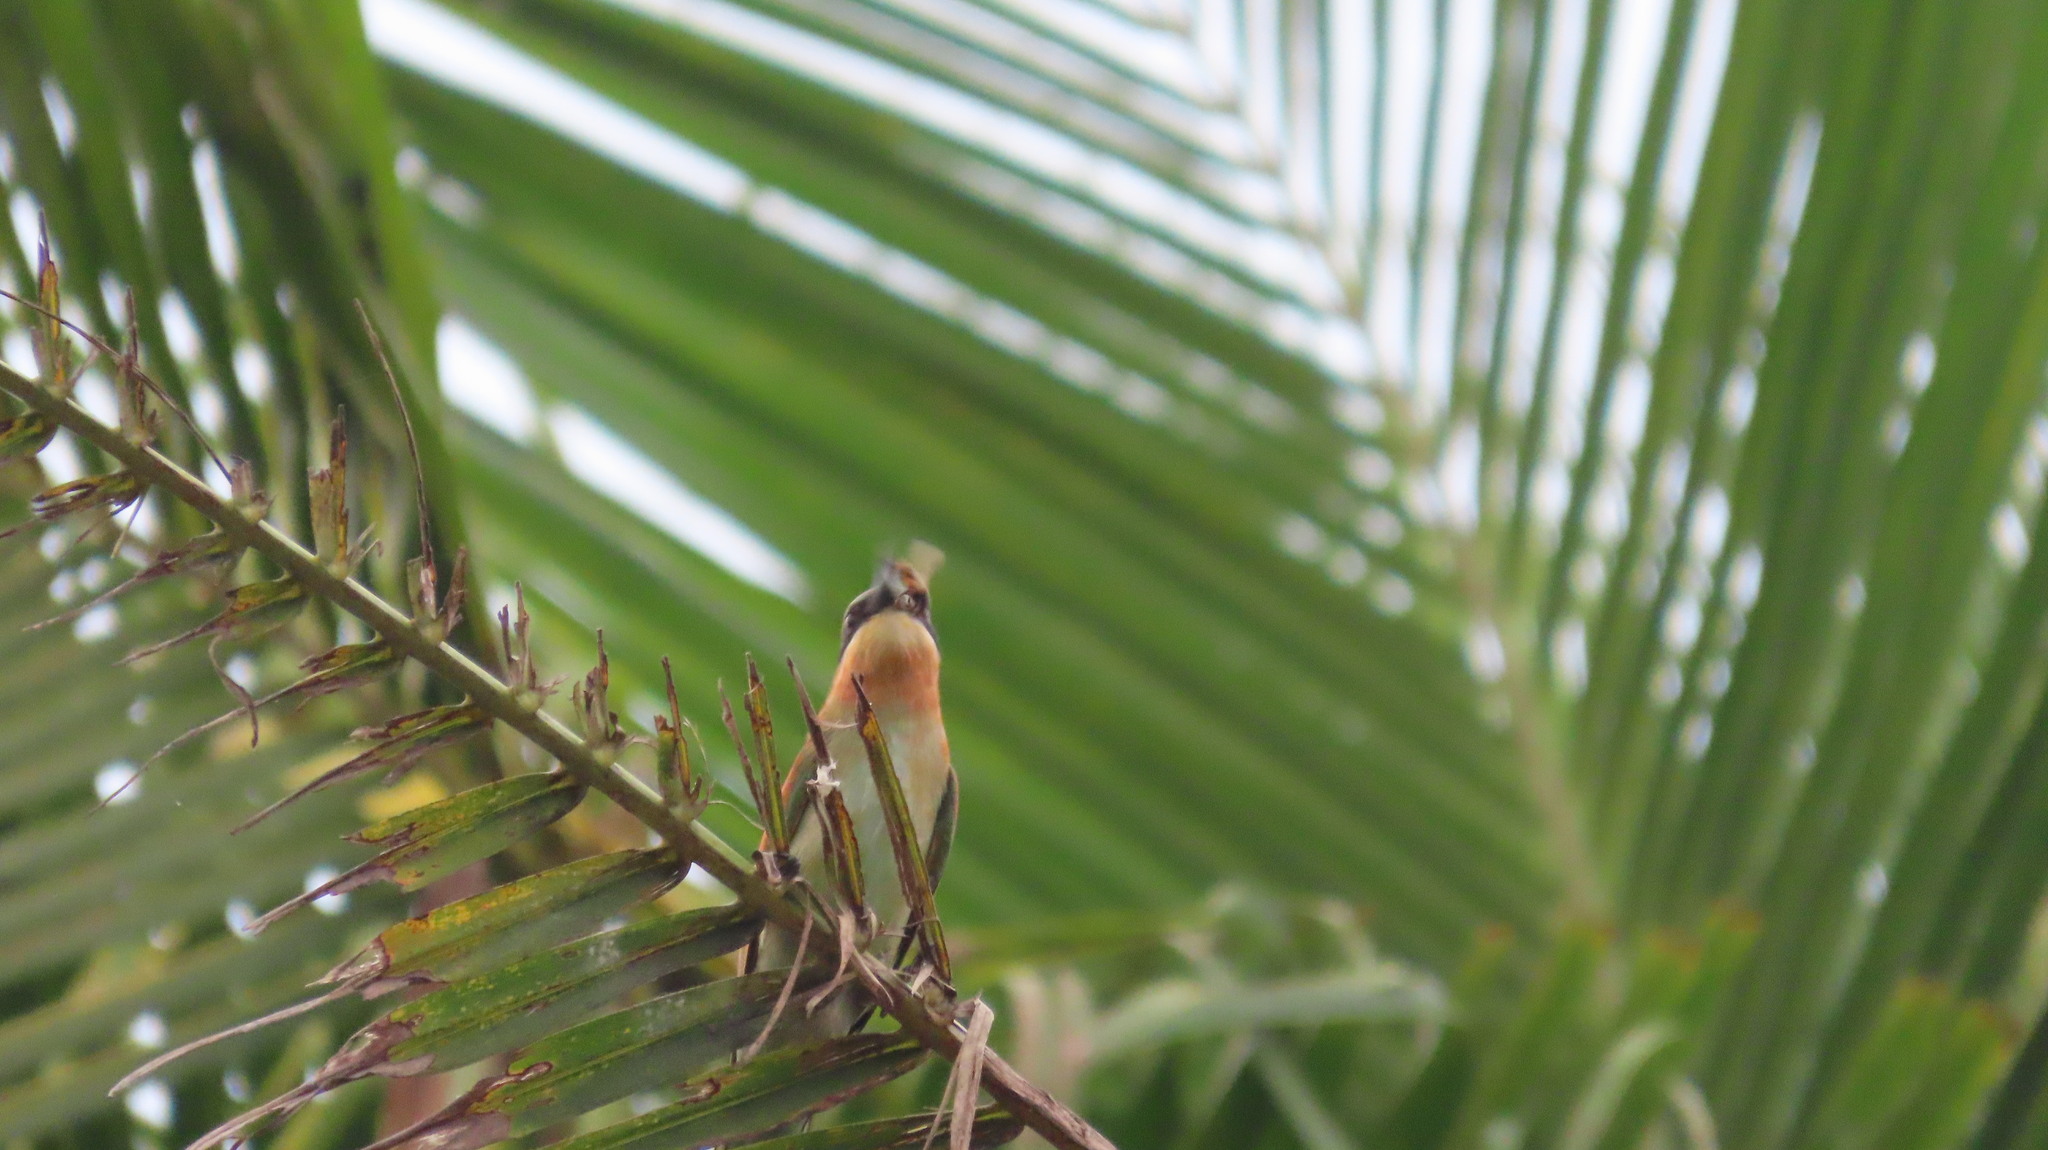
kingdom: Animalia
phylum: Chordata
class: Aves
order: Coraciiformes
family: Meropidae
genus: Merops
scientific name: Merops philippinus
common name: Blue-tailed bee-eater
